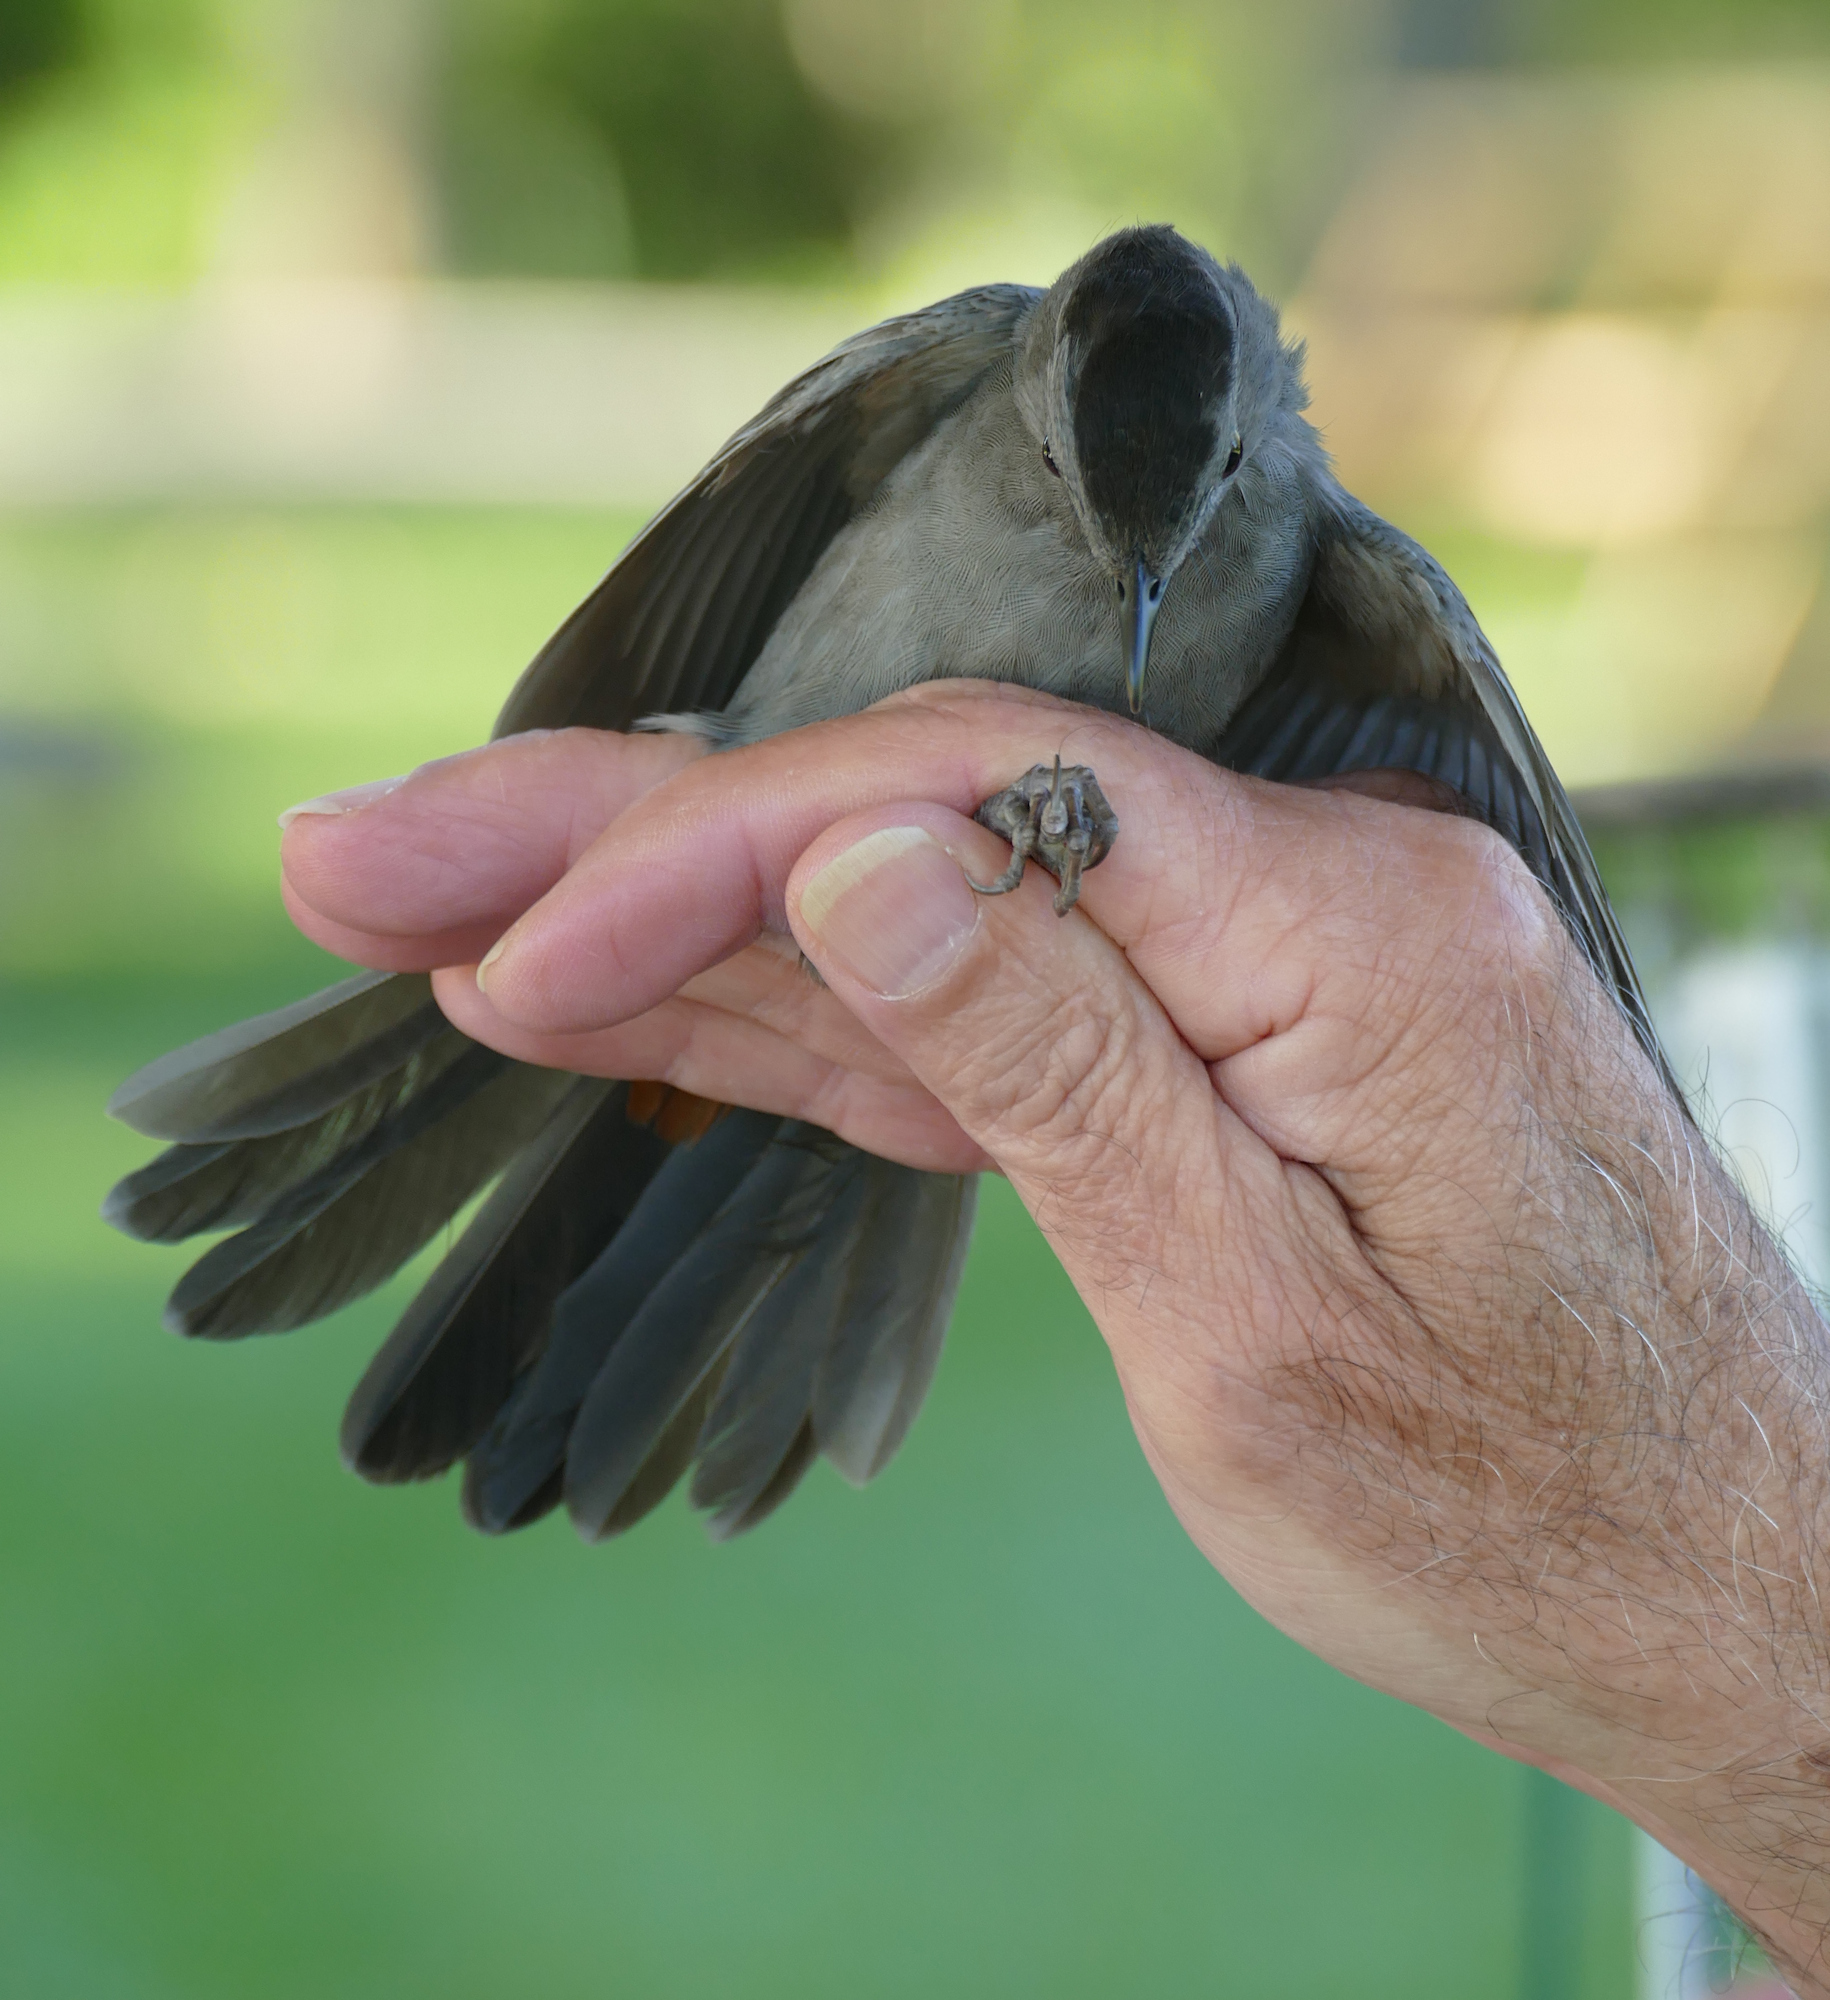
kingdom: Animalia
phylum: Chordata
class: Aves
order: Passeriformes
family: Mimidae
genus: Dumetella
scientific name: Dumetella carolinensis
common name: Gray catbird
